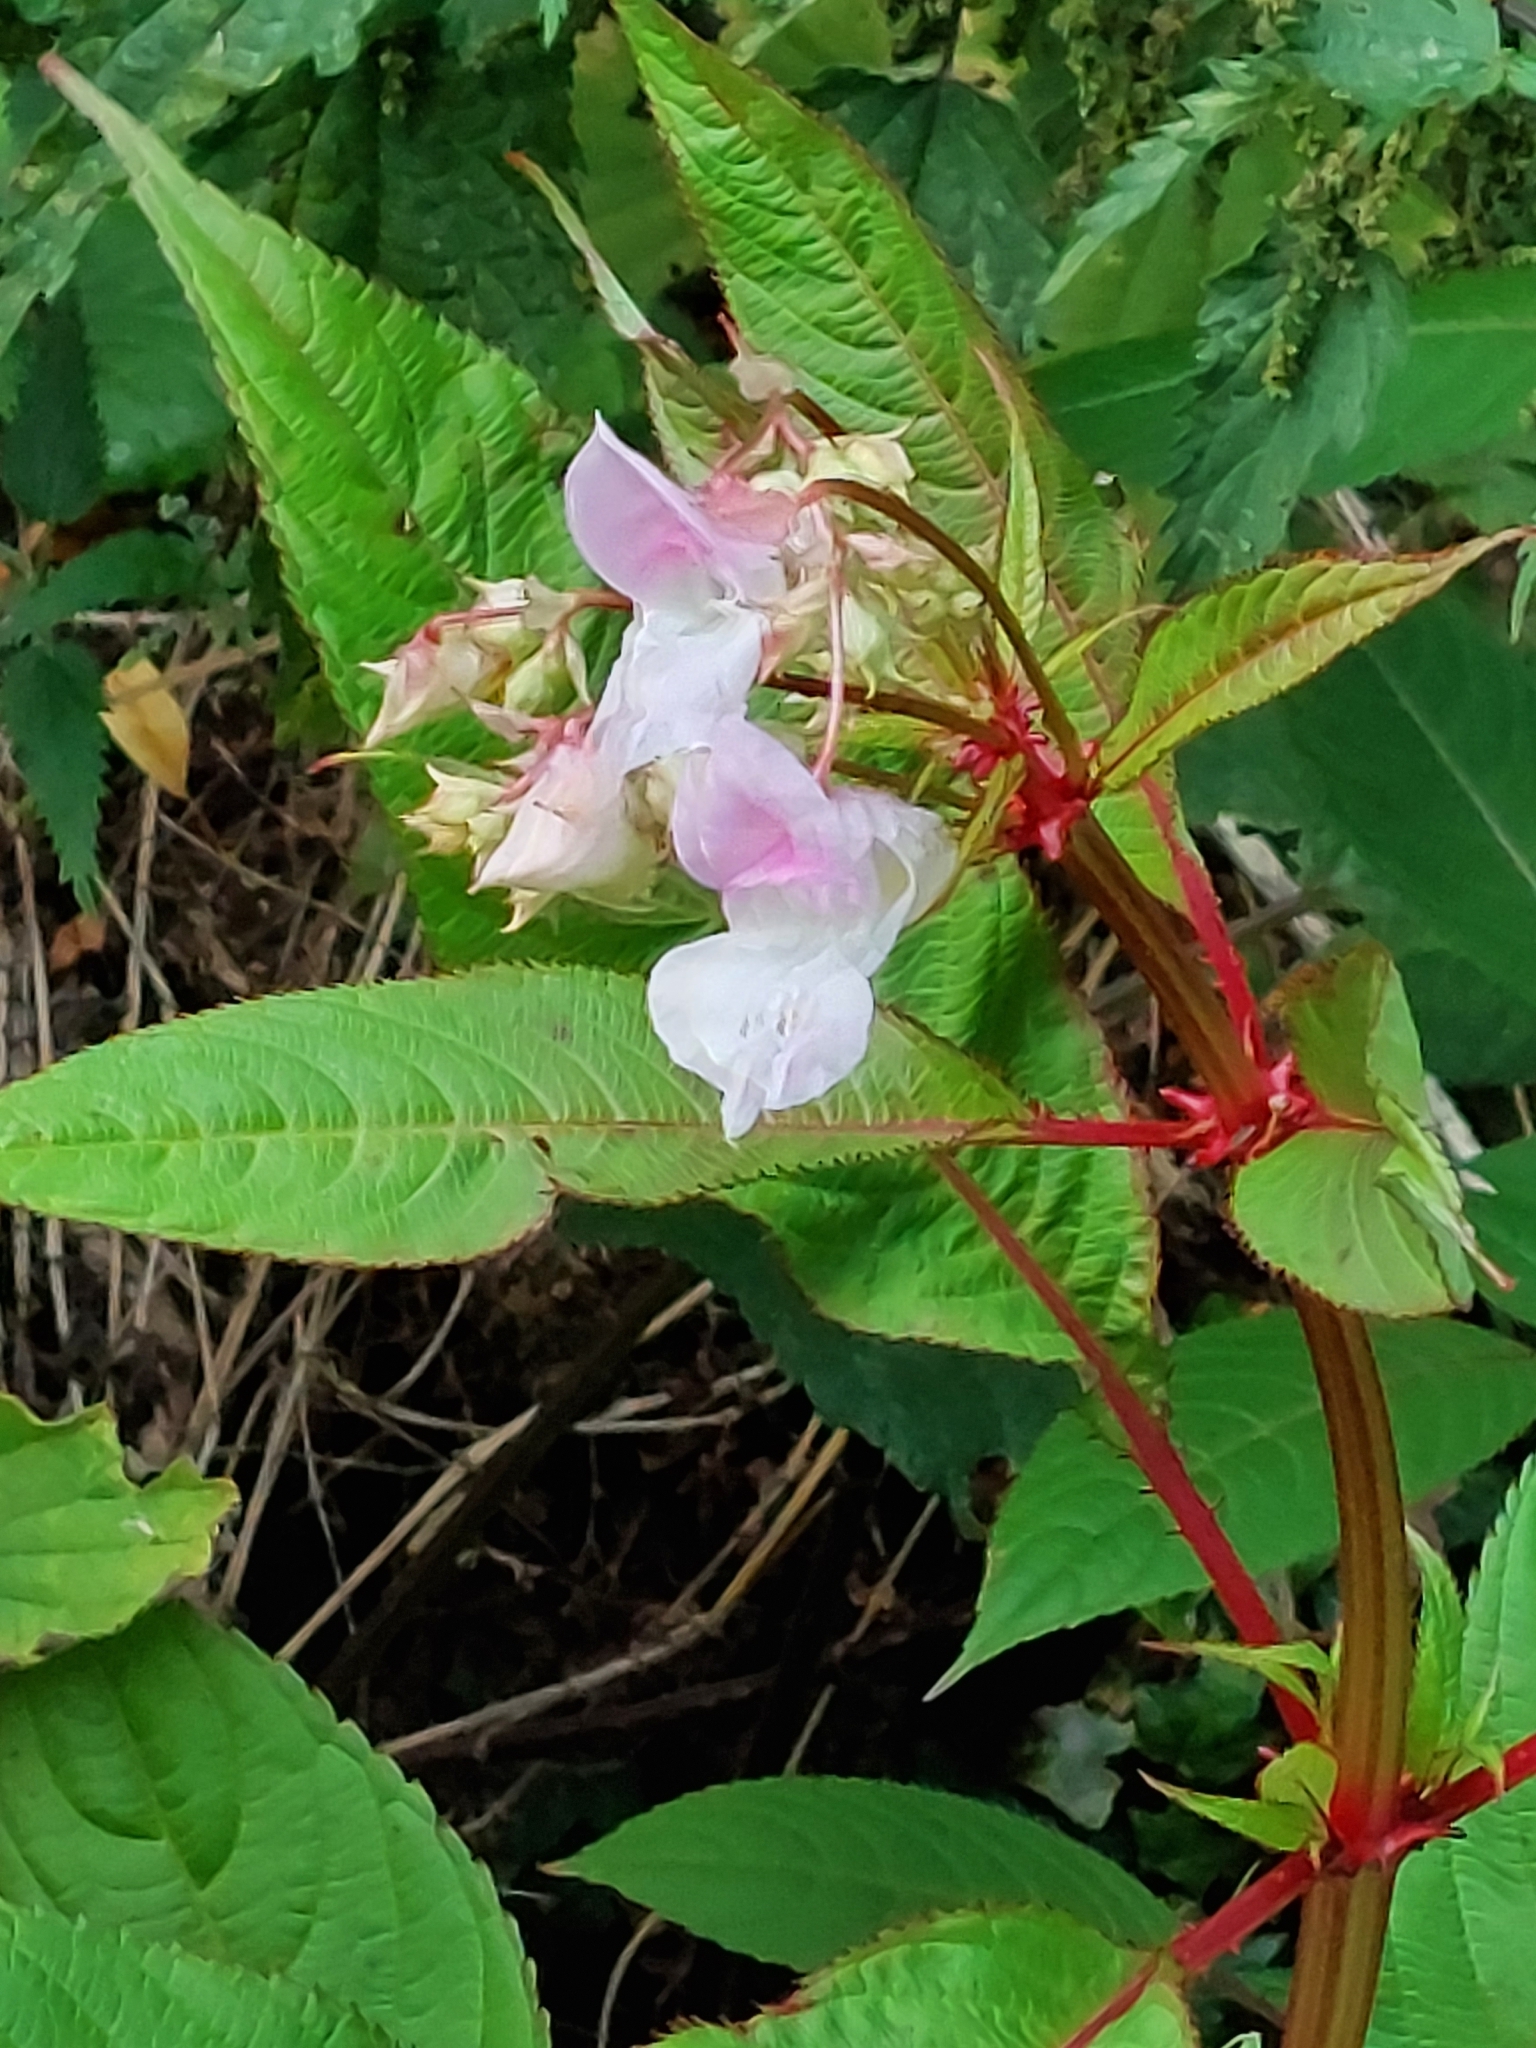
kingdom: Plantae
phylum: Tracheophyta
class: Magnoliopsida
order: Ericales
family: Balsaminaceae
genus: Impatiens
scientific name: Impatiens glandulifera
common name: Himalayan balsam
